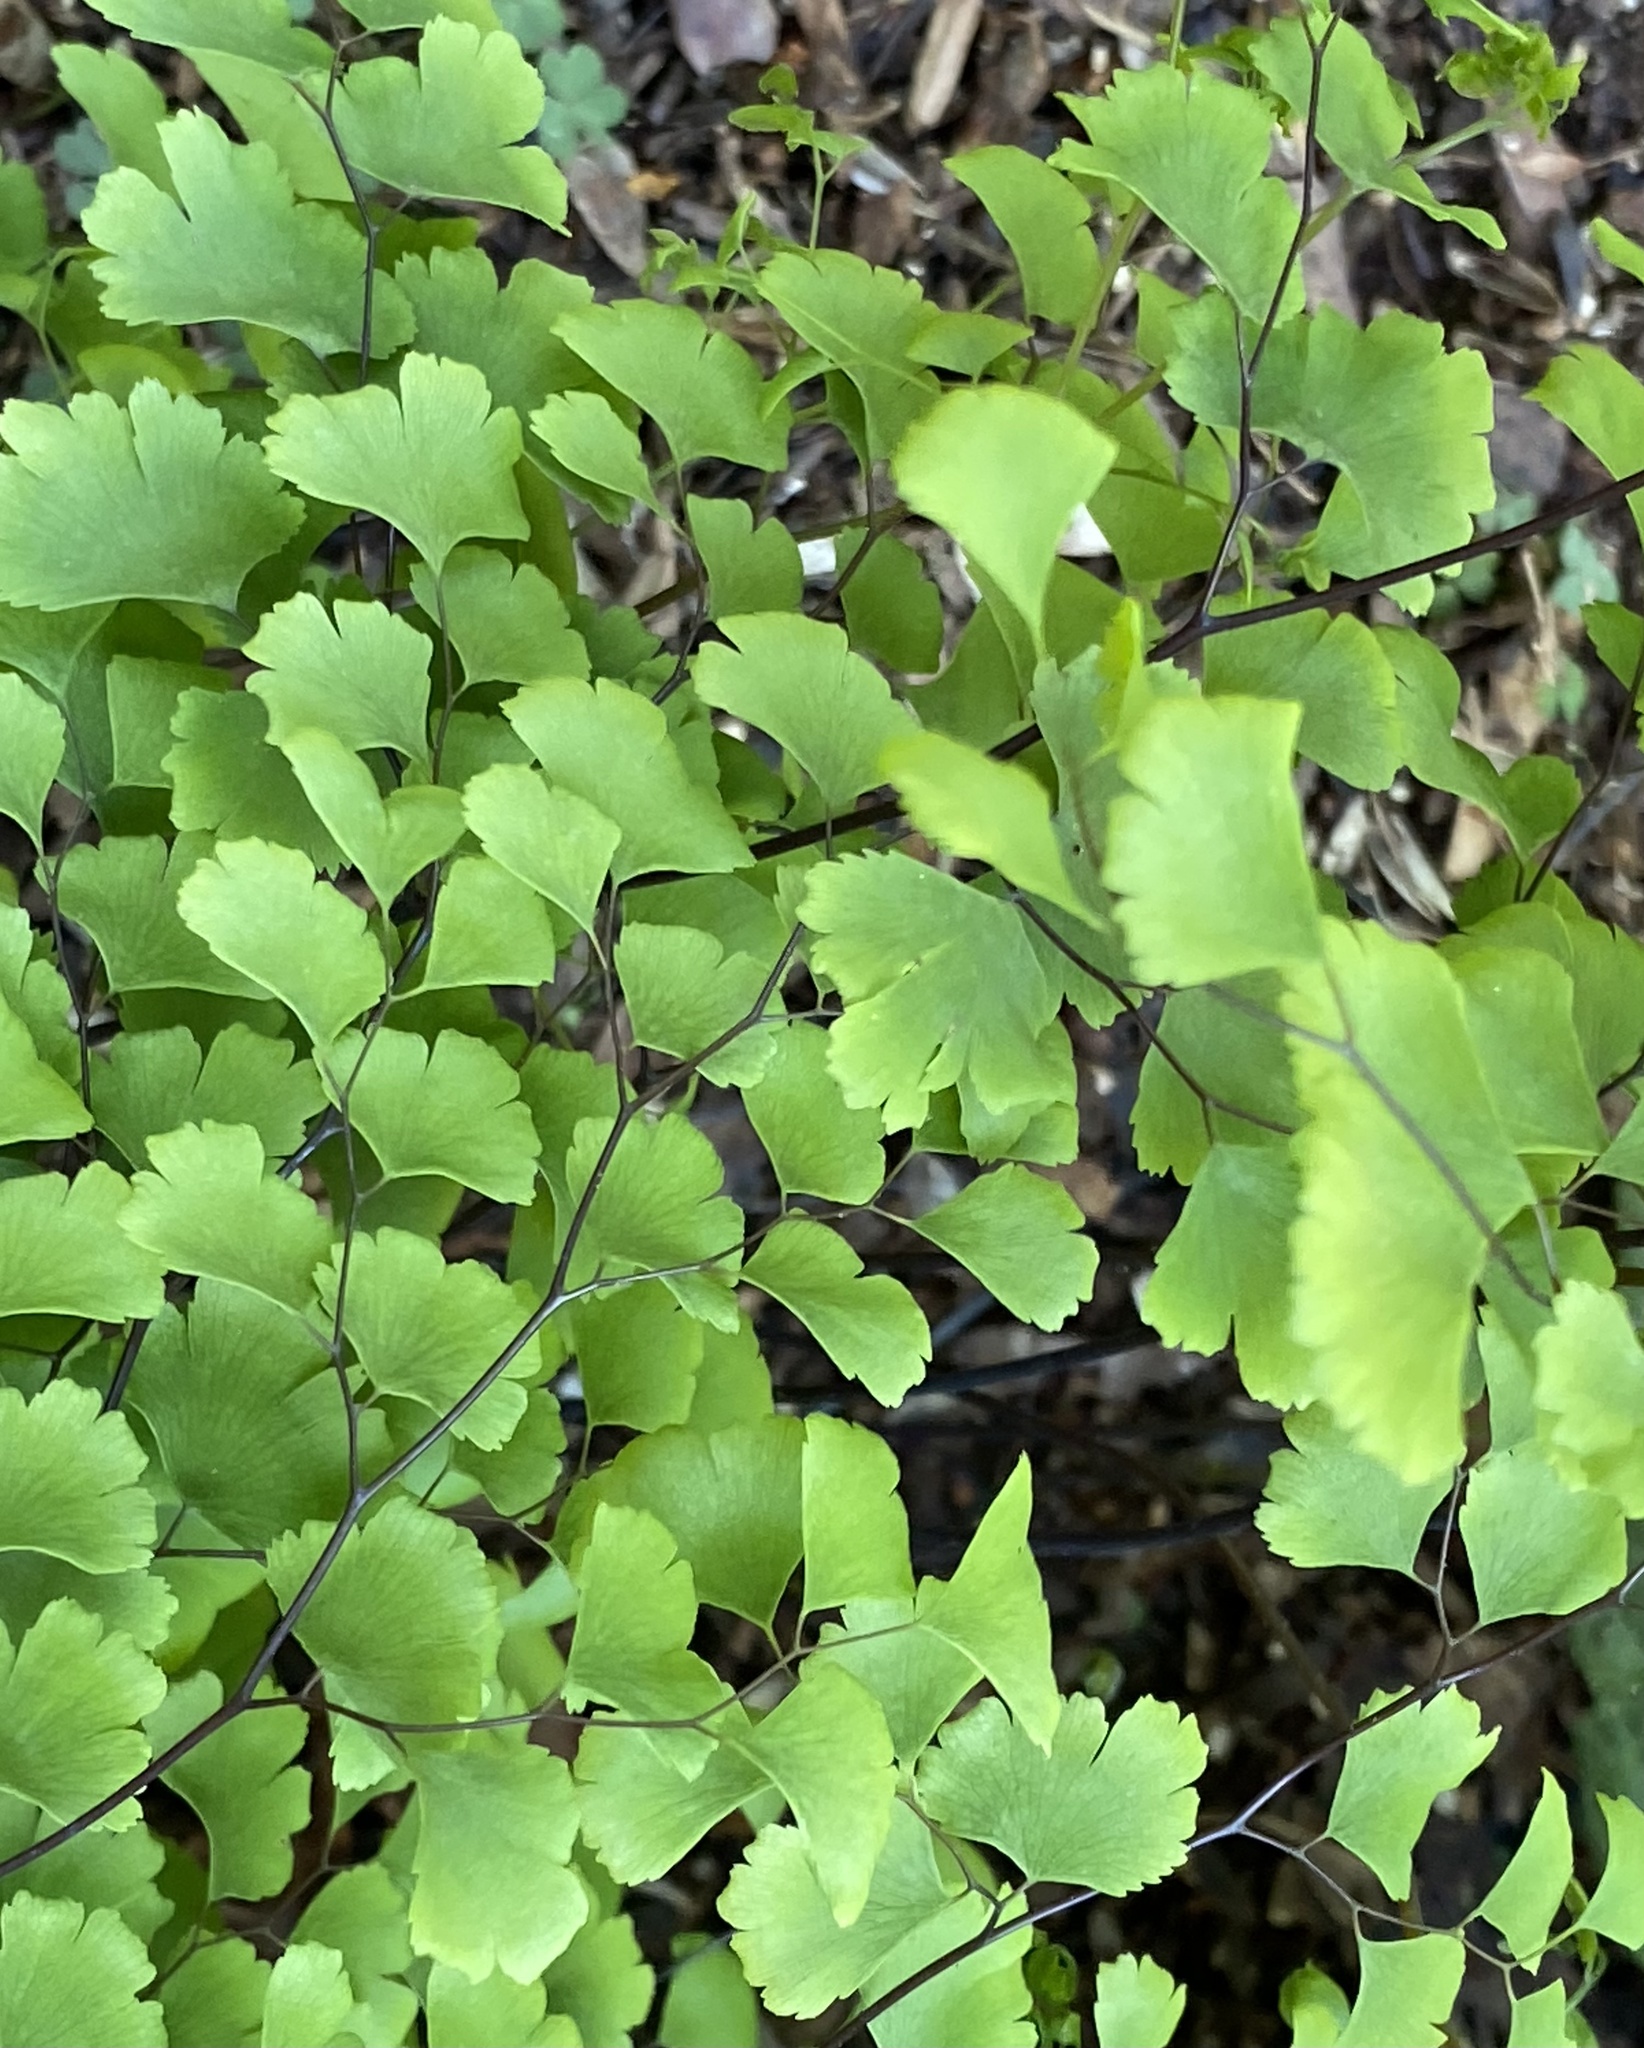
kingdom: Plantae
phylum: Tracheophyta
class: Polypodiopsida
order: Polypodiales
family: Pteridaceae
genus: Adiantum
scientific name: Adiantum capillus-veneris
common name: Maidenhair fern
